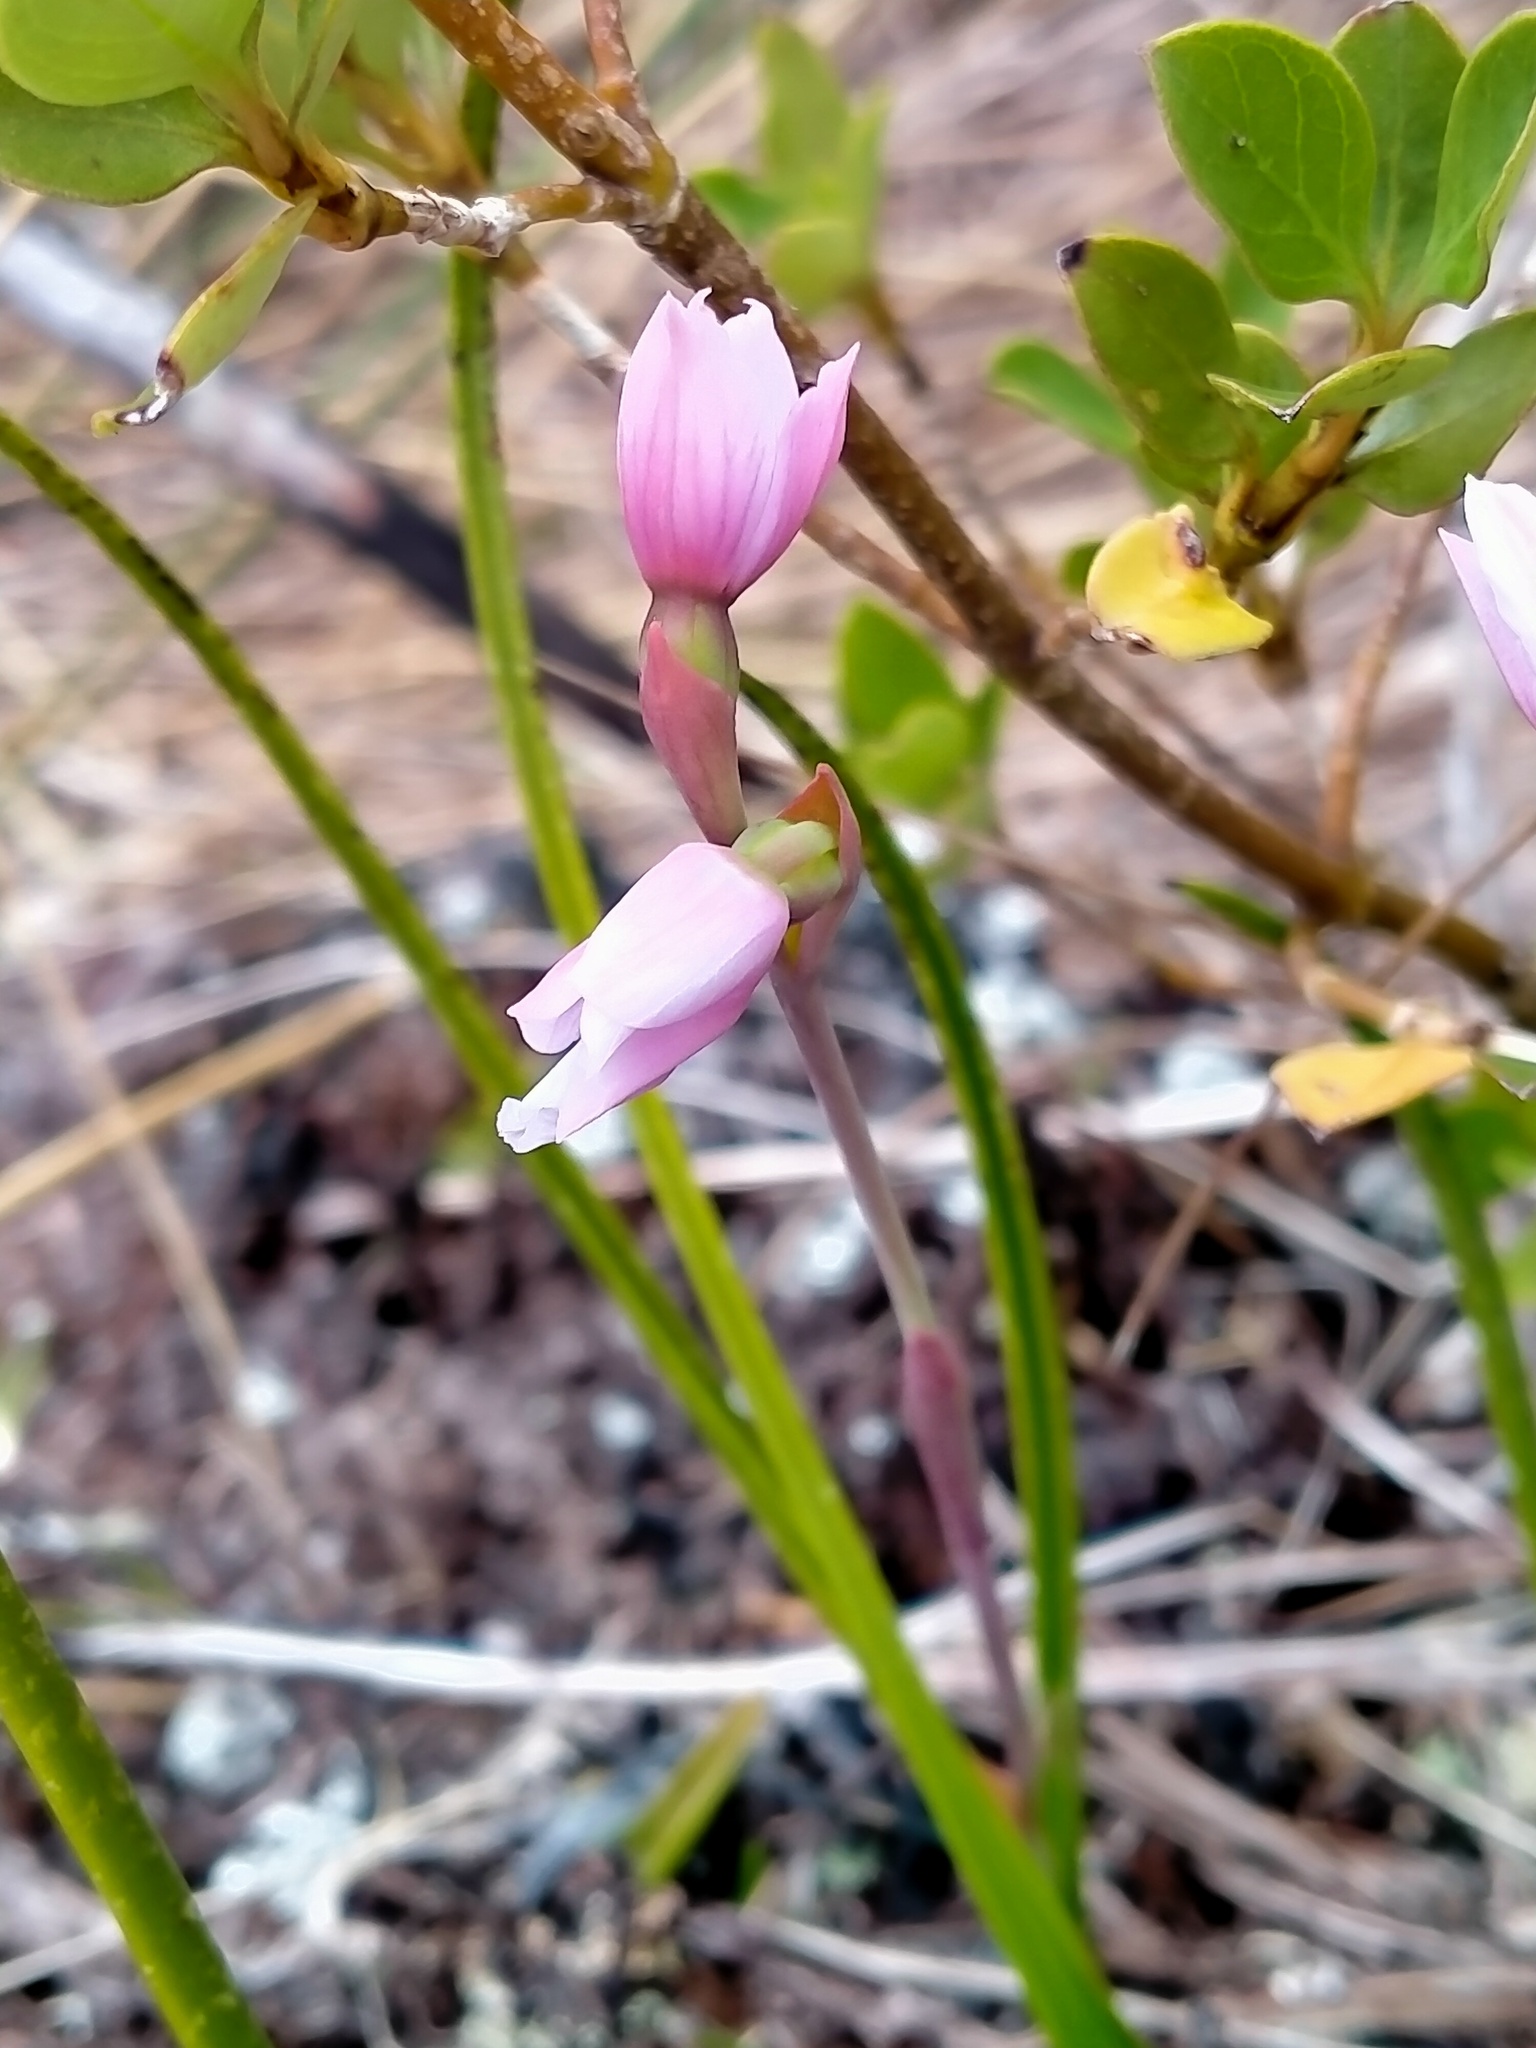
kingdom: Plantae
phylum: Tracheophyta
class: Liliopsida
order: Asparagales
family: Orchidaceae
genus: Thelymitra
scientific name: Thelymitra cyanea
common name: Blue sun-orchid
